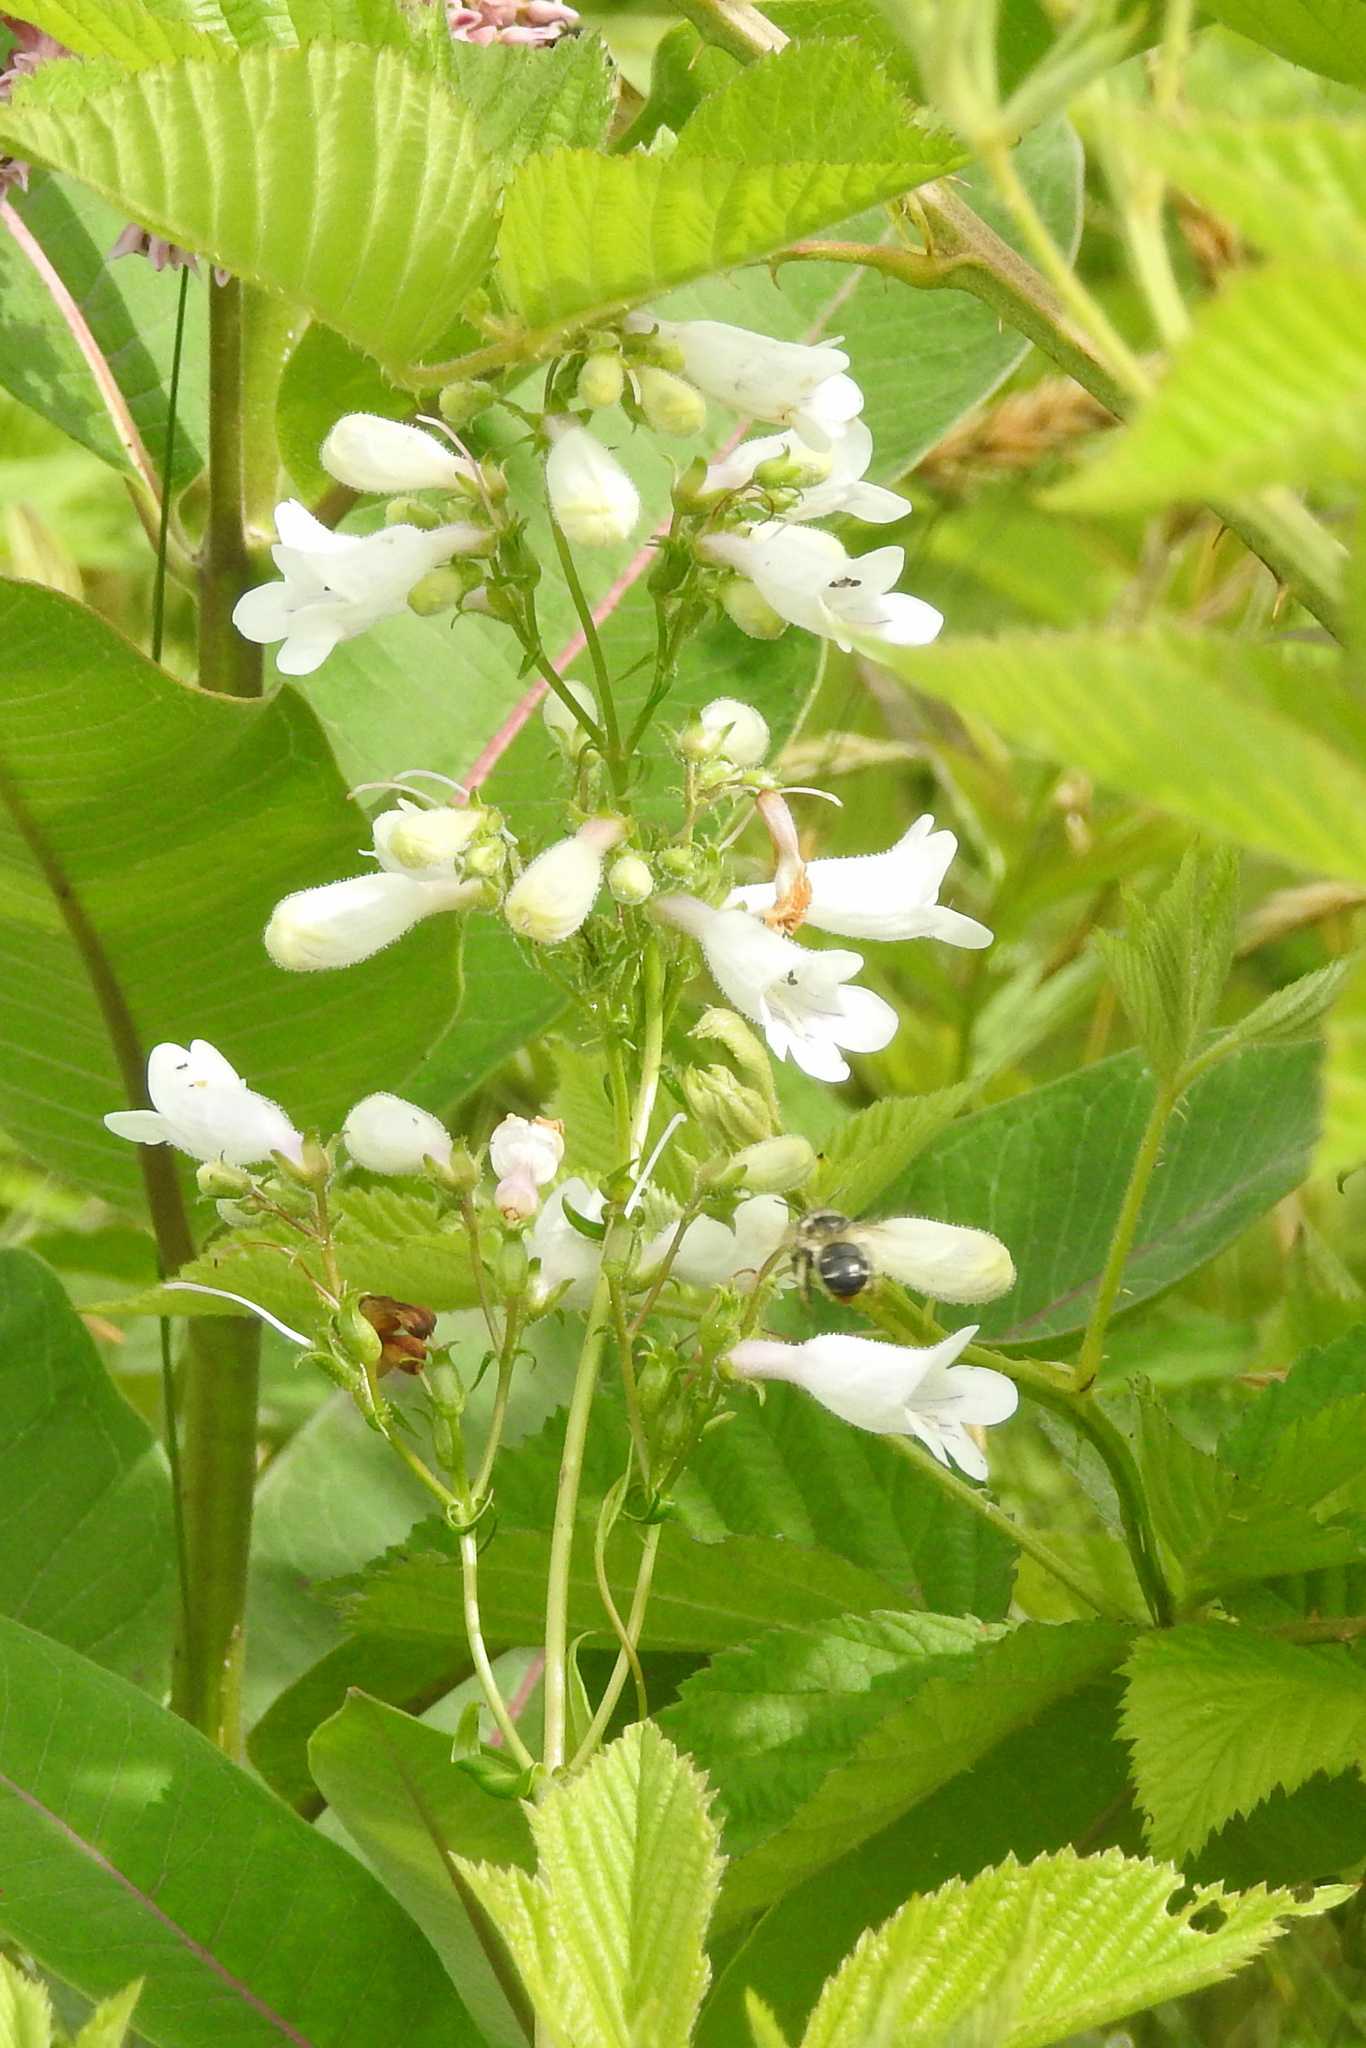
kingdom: Plantae
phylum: Tracheophyta
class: Magnoliopsida
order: Lamiales
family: Plantaginaceae
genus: Penstemon
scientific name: Penstemon digitalis
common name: Foxglove beardtongue
